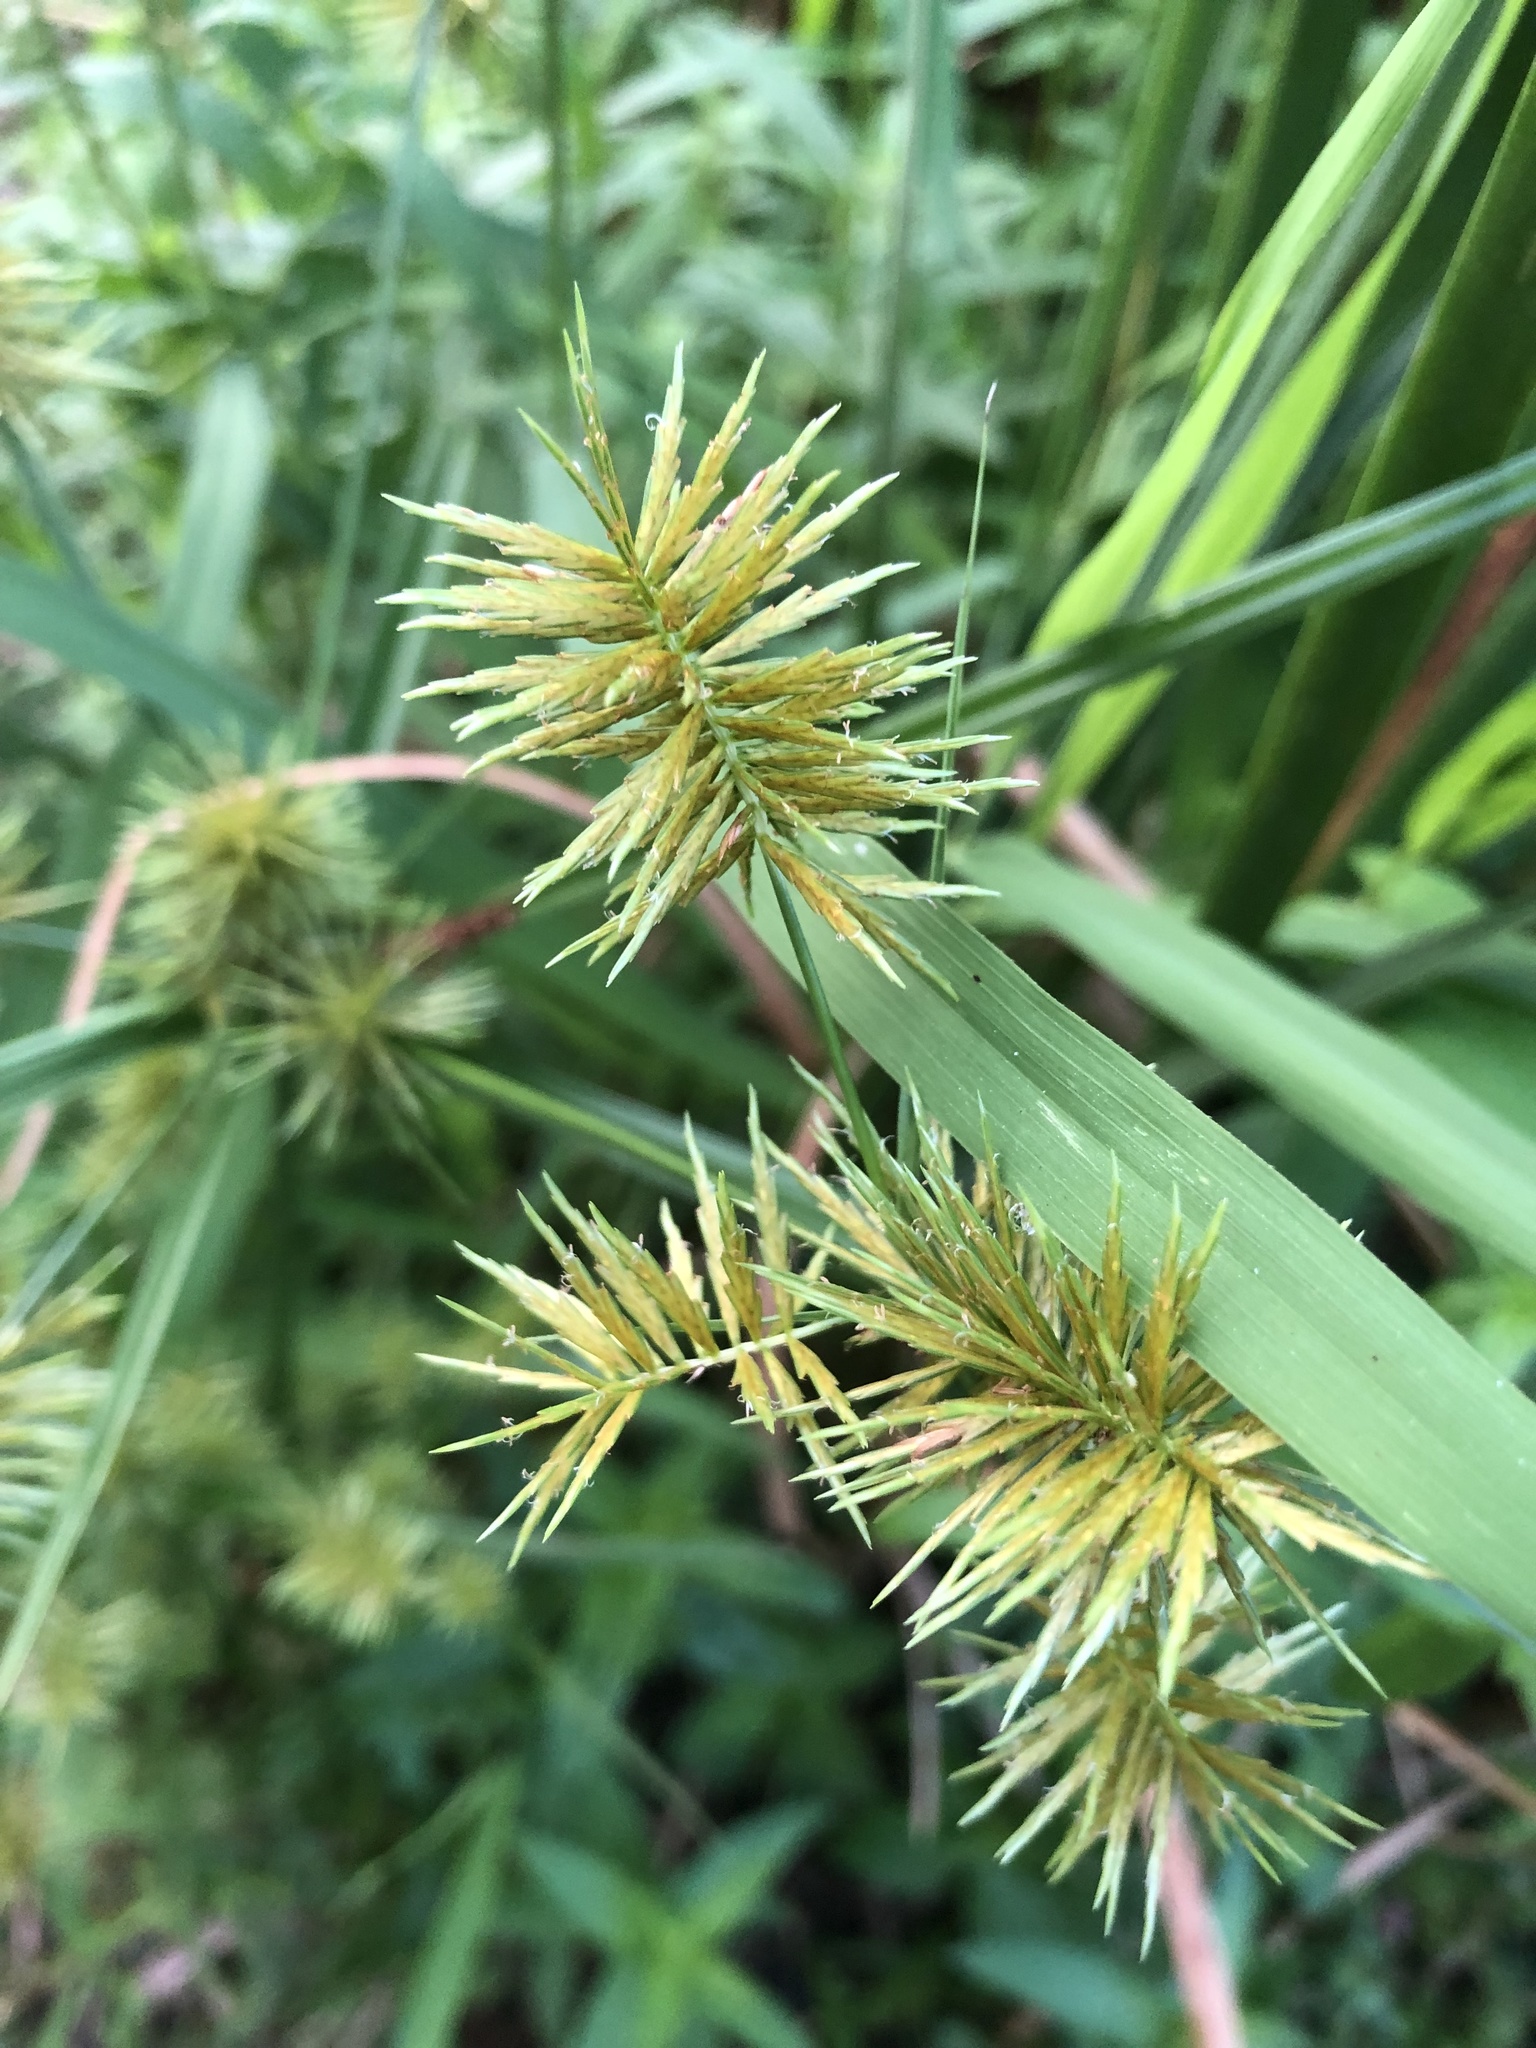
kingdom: Plantae
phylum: Tracheophyta
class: Liliopsida
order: Poales
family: Cyperaceae
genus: Cyperus
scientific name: Cyperus strigosus
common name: False nutsedge
